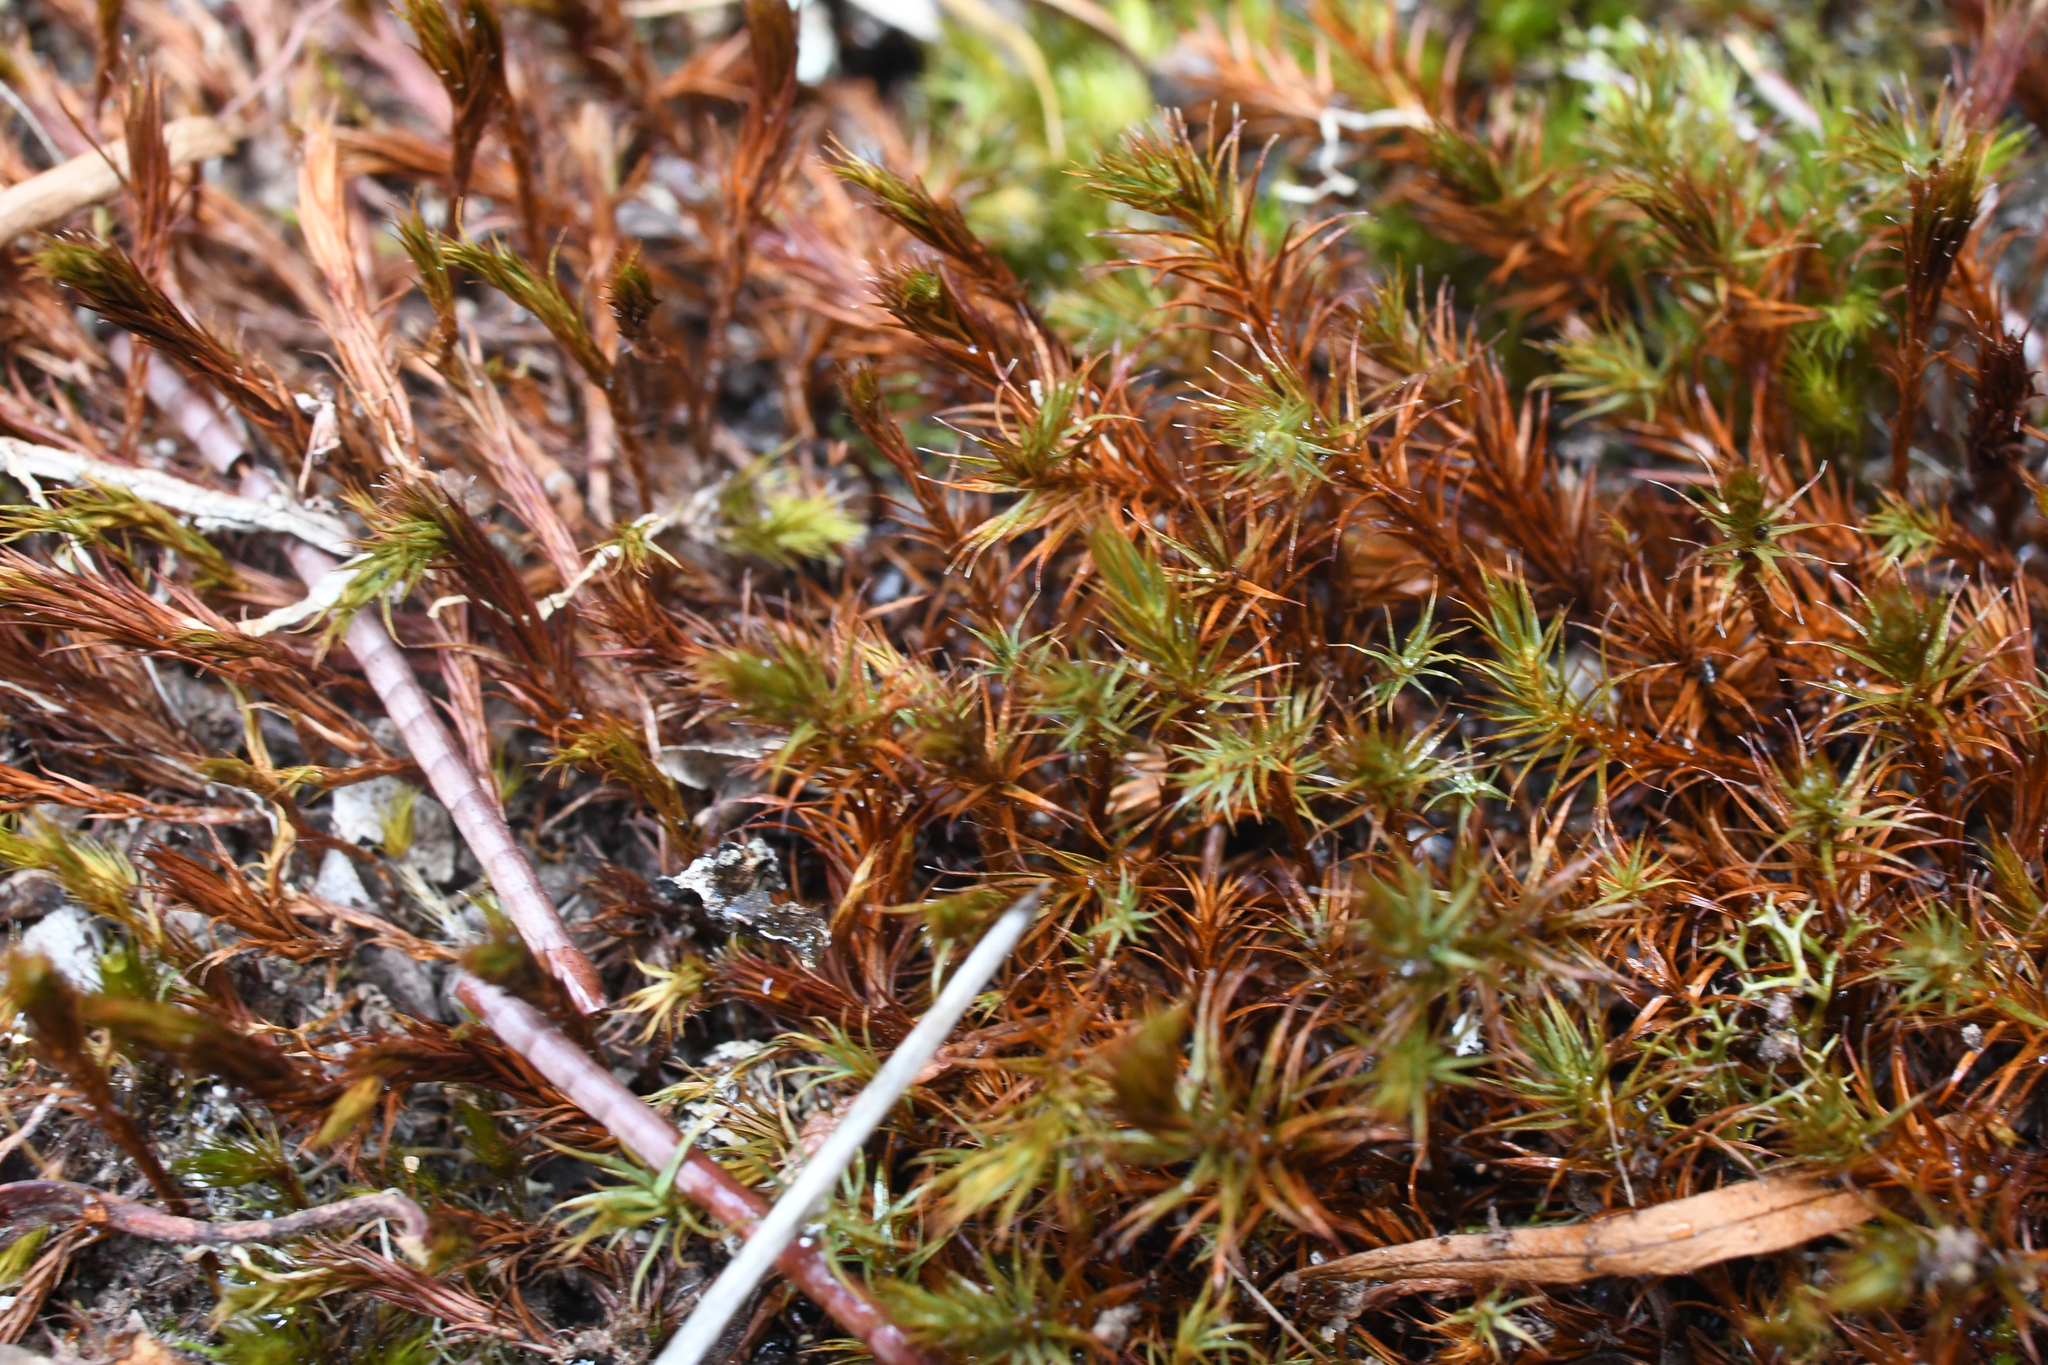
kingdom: Plantae
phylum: Bryophyta
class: Polytrichopsida
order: Polytrichales
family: Polytrichaceae
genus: Polytrichum
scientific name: Polytrichum juniperinum
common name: Juniper haircap moss
